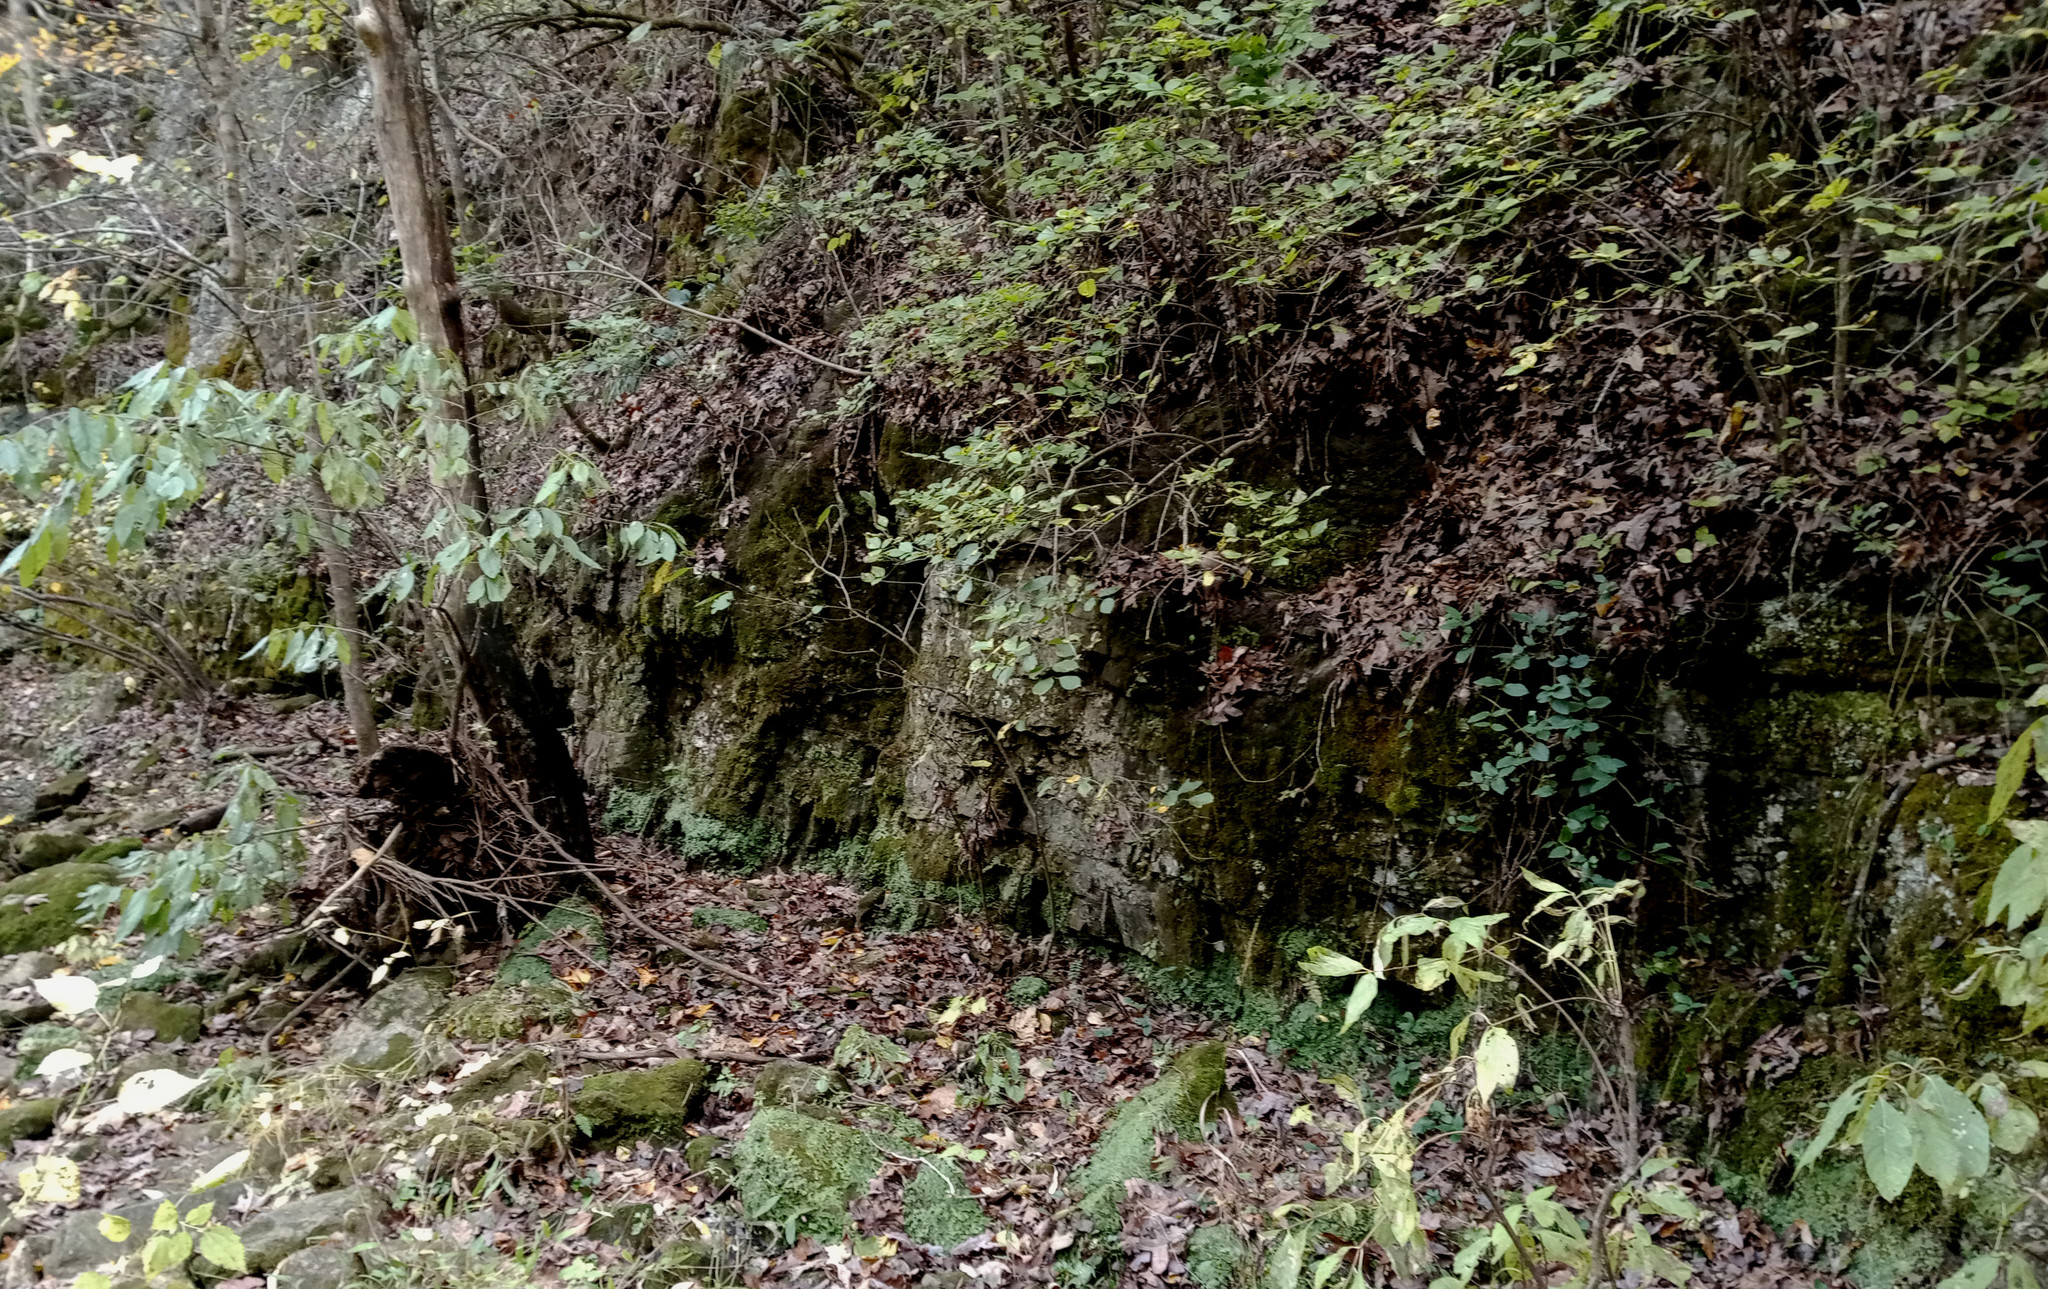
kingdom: Plantae
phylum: Marchantiophyta
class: Marchantiopsida
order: Marchantiales
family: Conocephalaceae
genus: Conocephalum
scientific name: Conocephalum salebrosum
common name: Cat-tongue liverwort
